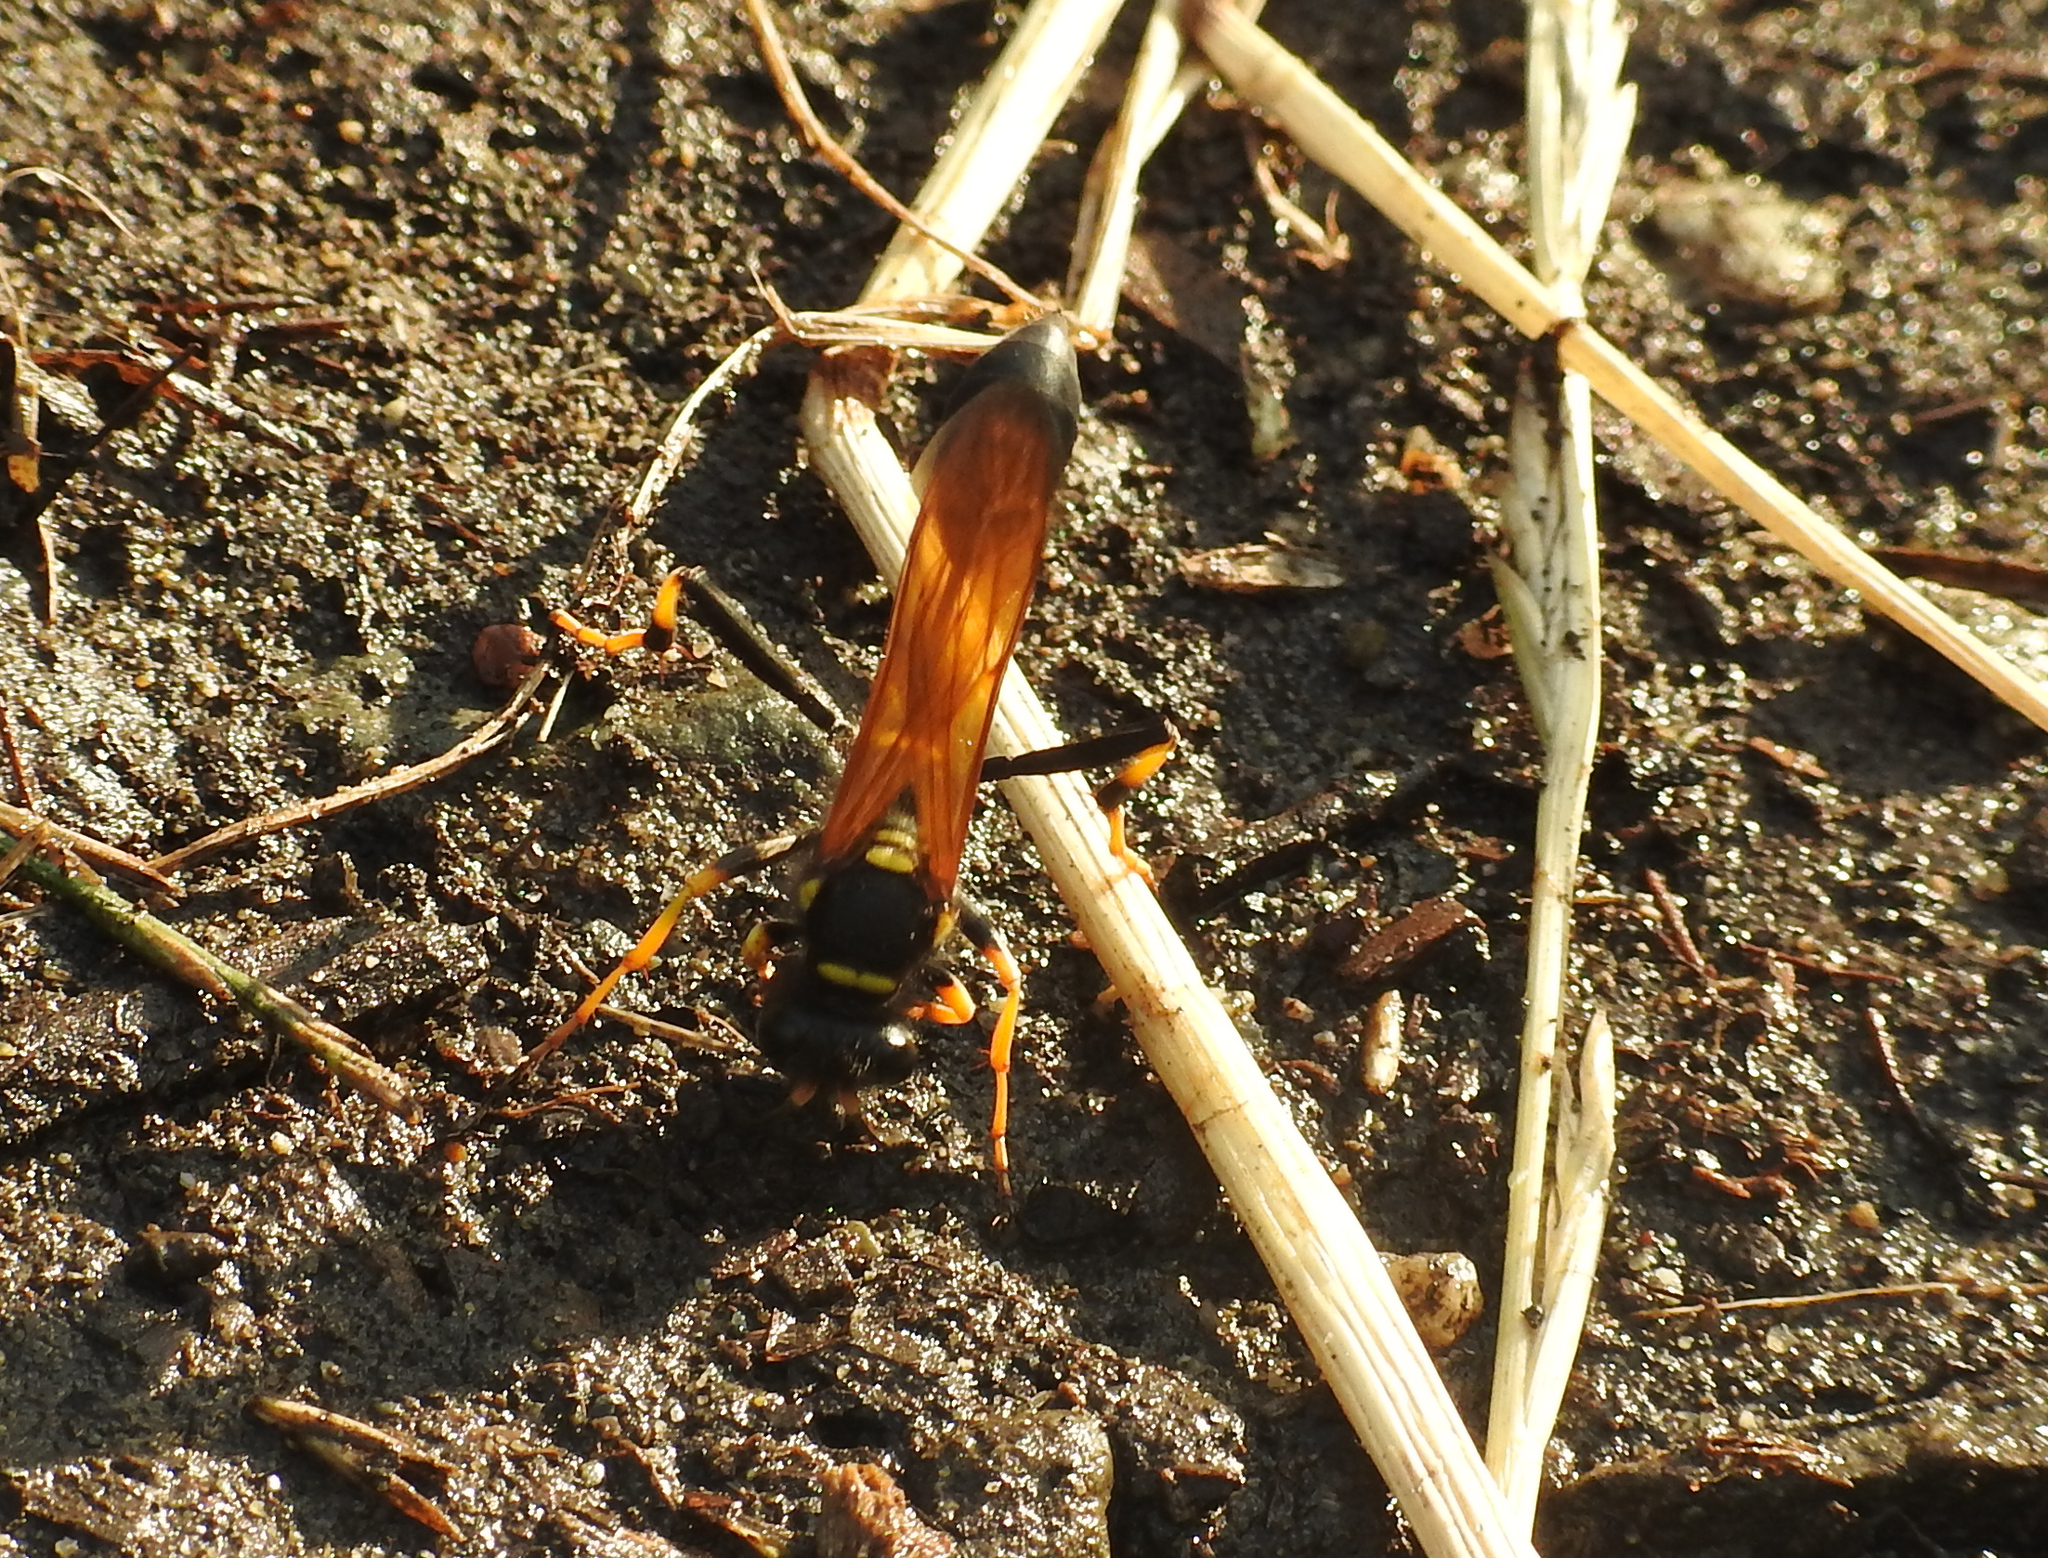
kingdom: Animalia
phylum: Arthropoda
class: Insecta
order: Hymenoptera
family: Sphecidae
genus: Sceliphron
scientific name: Sceliphron caementarium
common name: Mud dauber
